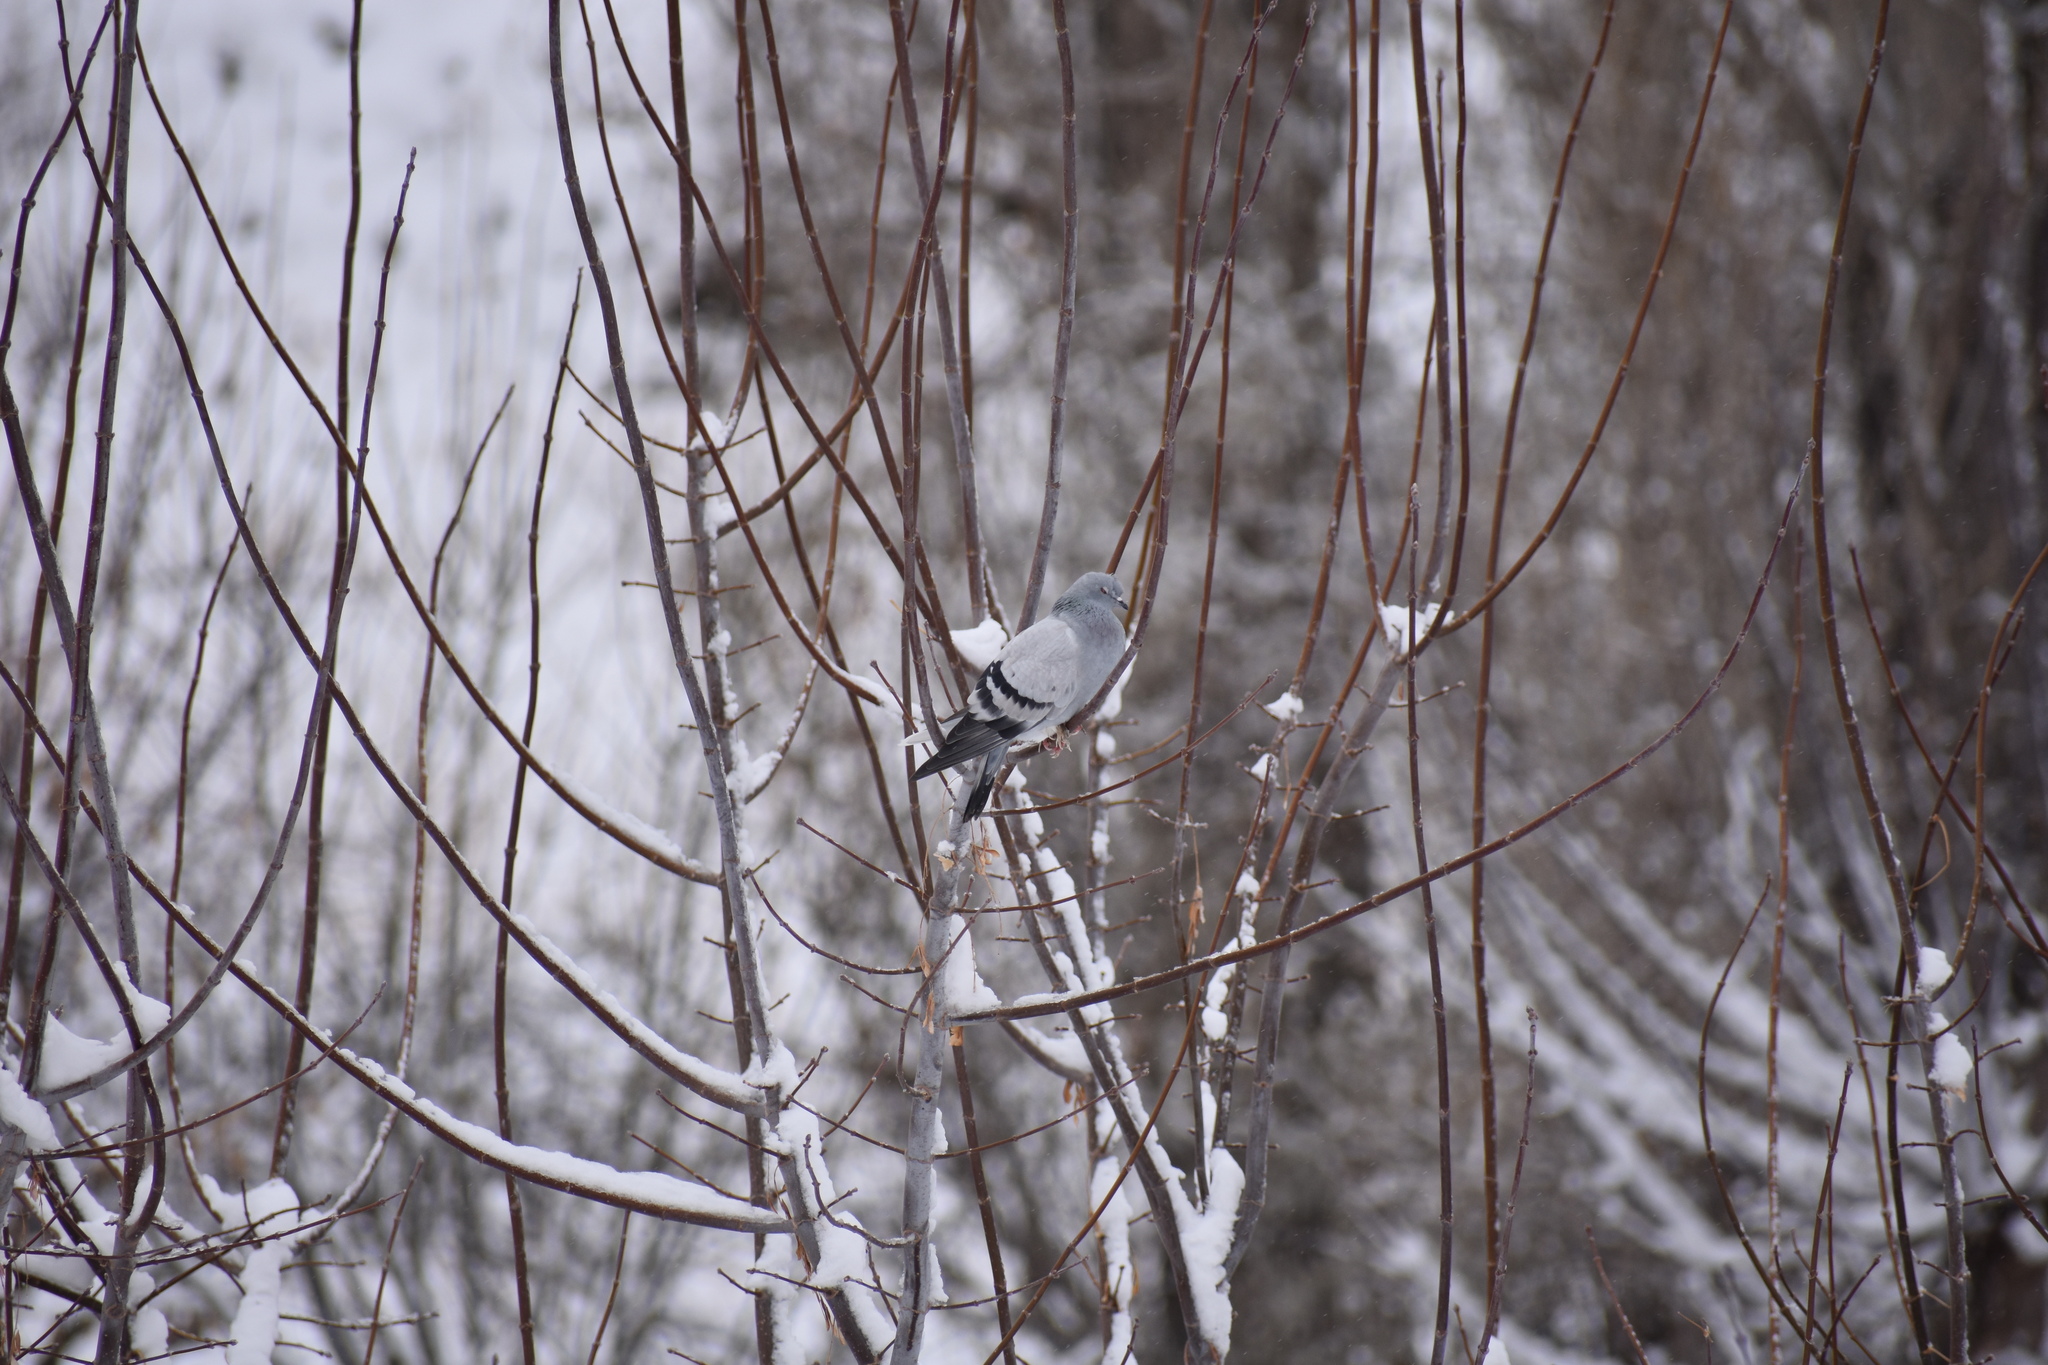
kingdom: Animalia
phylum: Chordata
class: Aves
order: Columbiformes
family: Columbidae
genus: Columba
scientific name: Columba livia
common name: Rock pigeon
